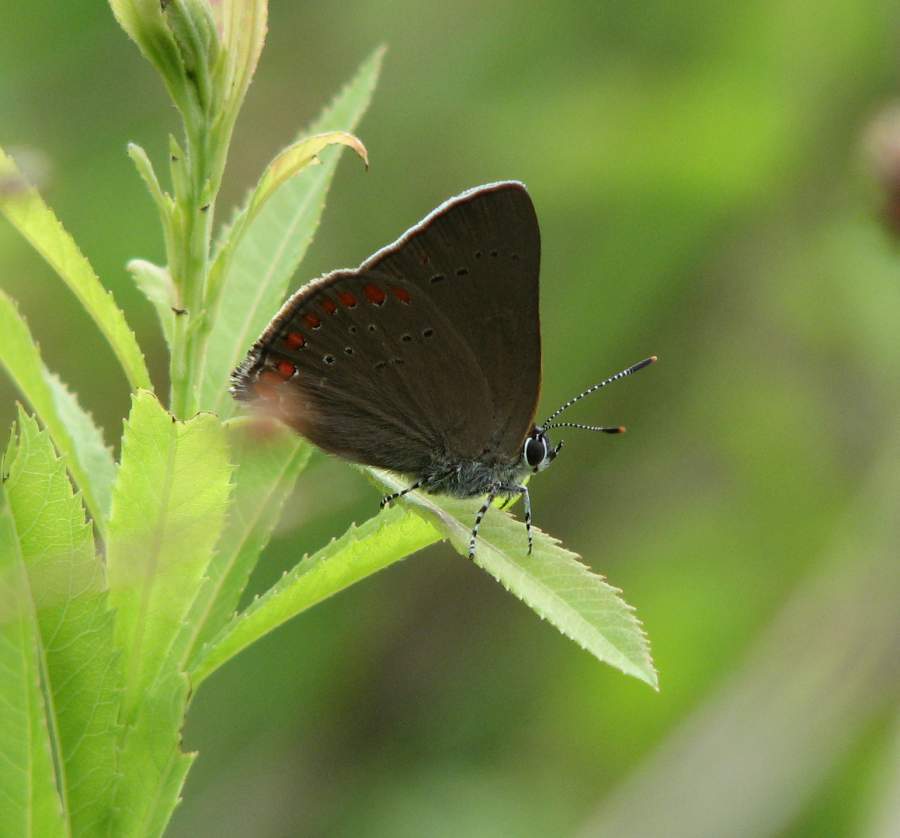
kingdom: Animalia
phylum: Arthropoda
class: Insecta
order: Lepidoptera
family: Lycaenidae
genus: Harkenclenus
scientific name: Harkenclenus titus
